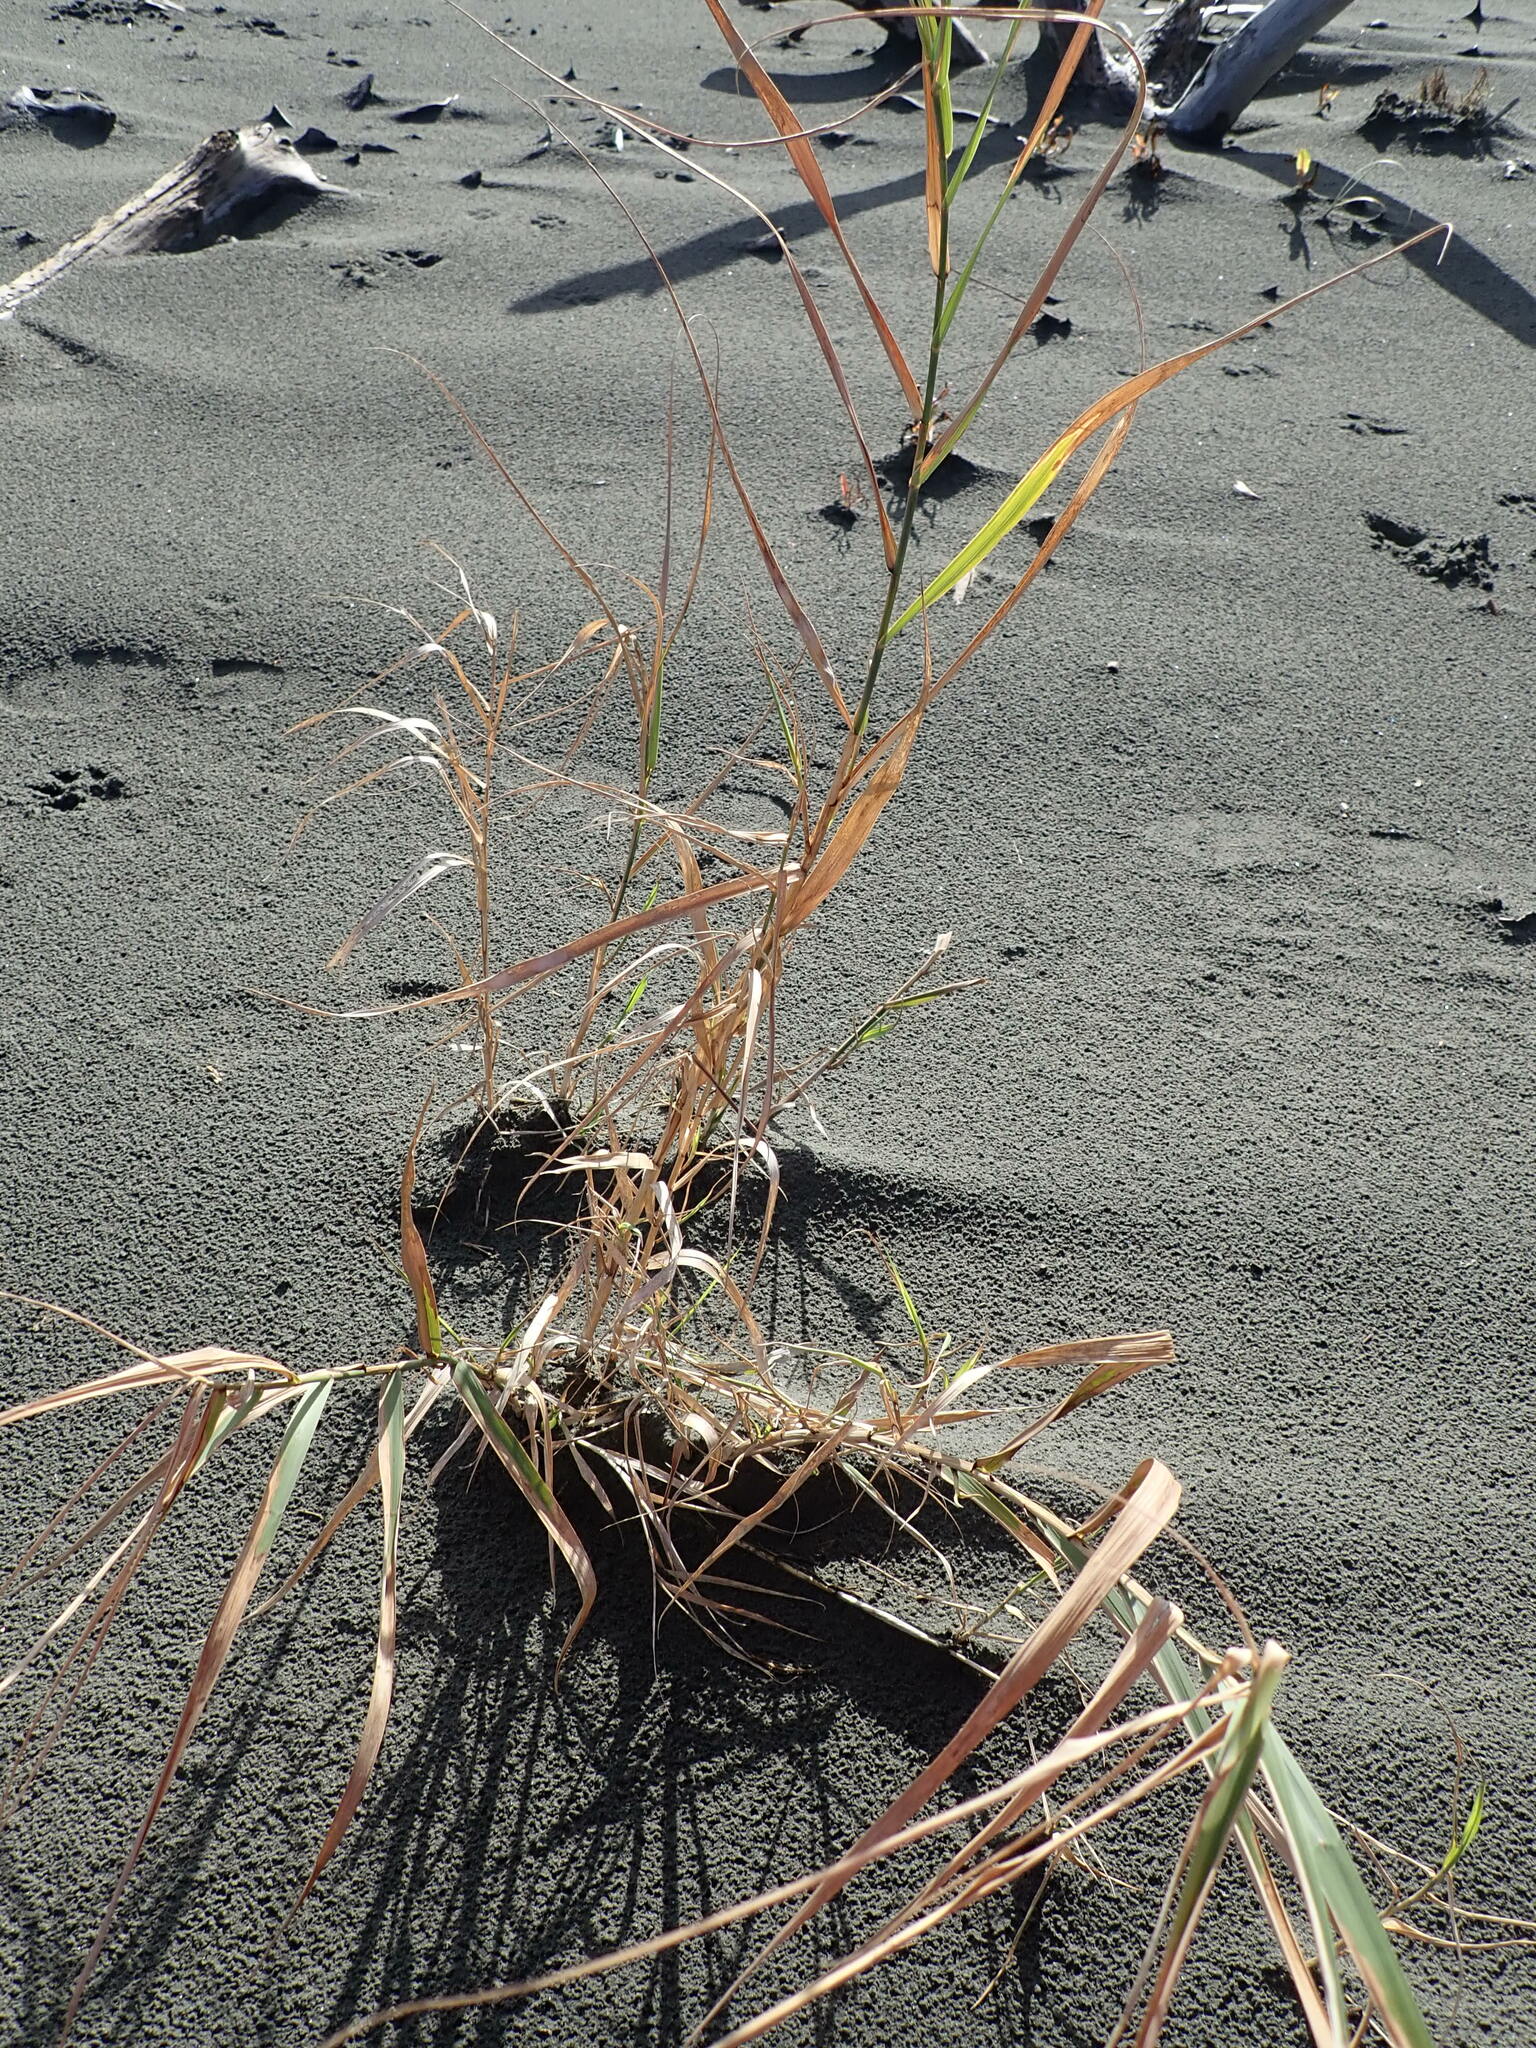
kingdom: Plantae
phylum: Tracheophyta
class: Liliopsida
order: Poales
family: Poaceae
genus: Phragmites
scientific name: Phragmites karka
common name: Tropical reed
